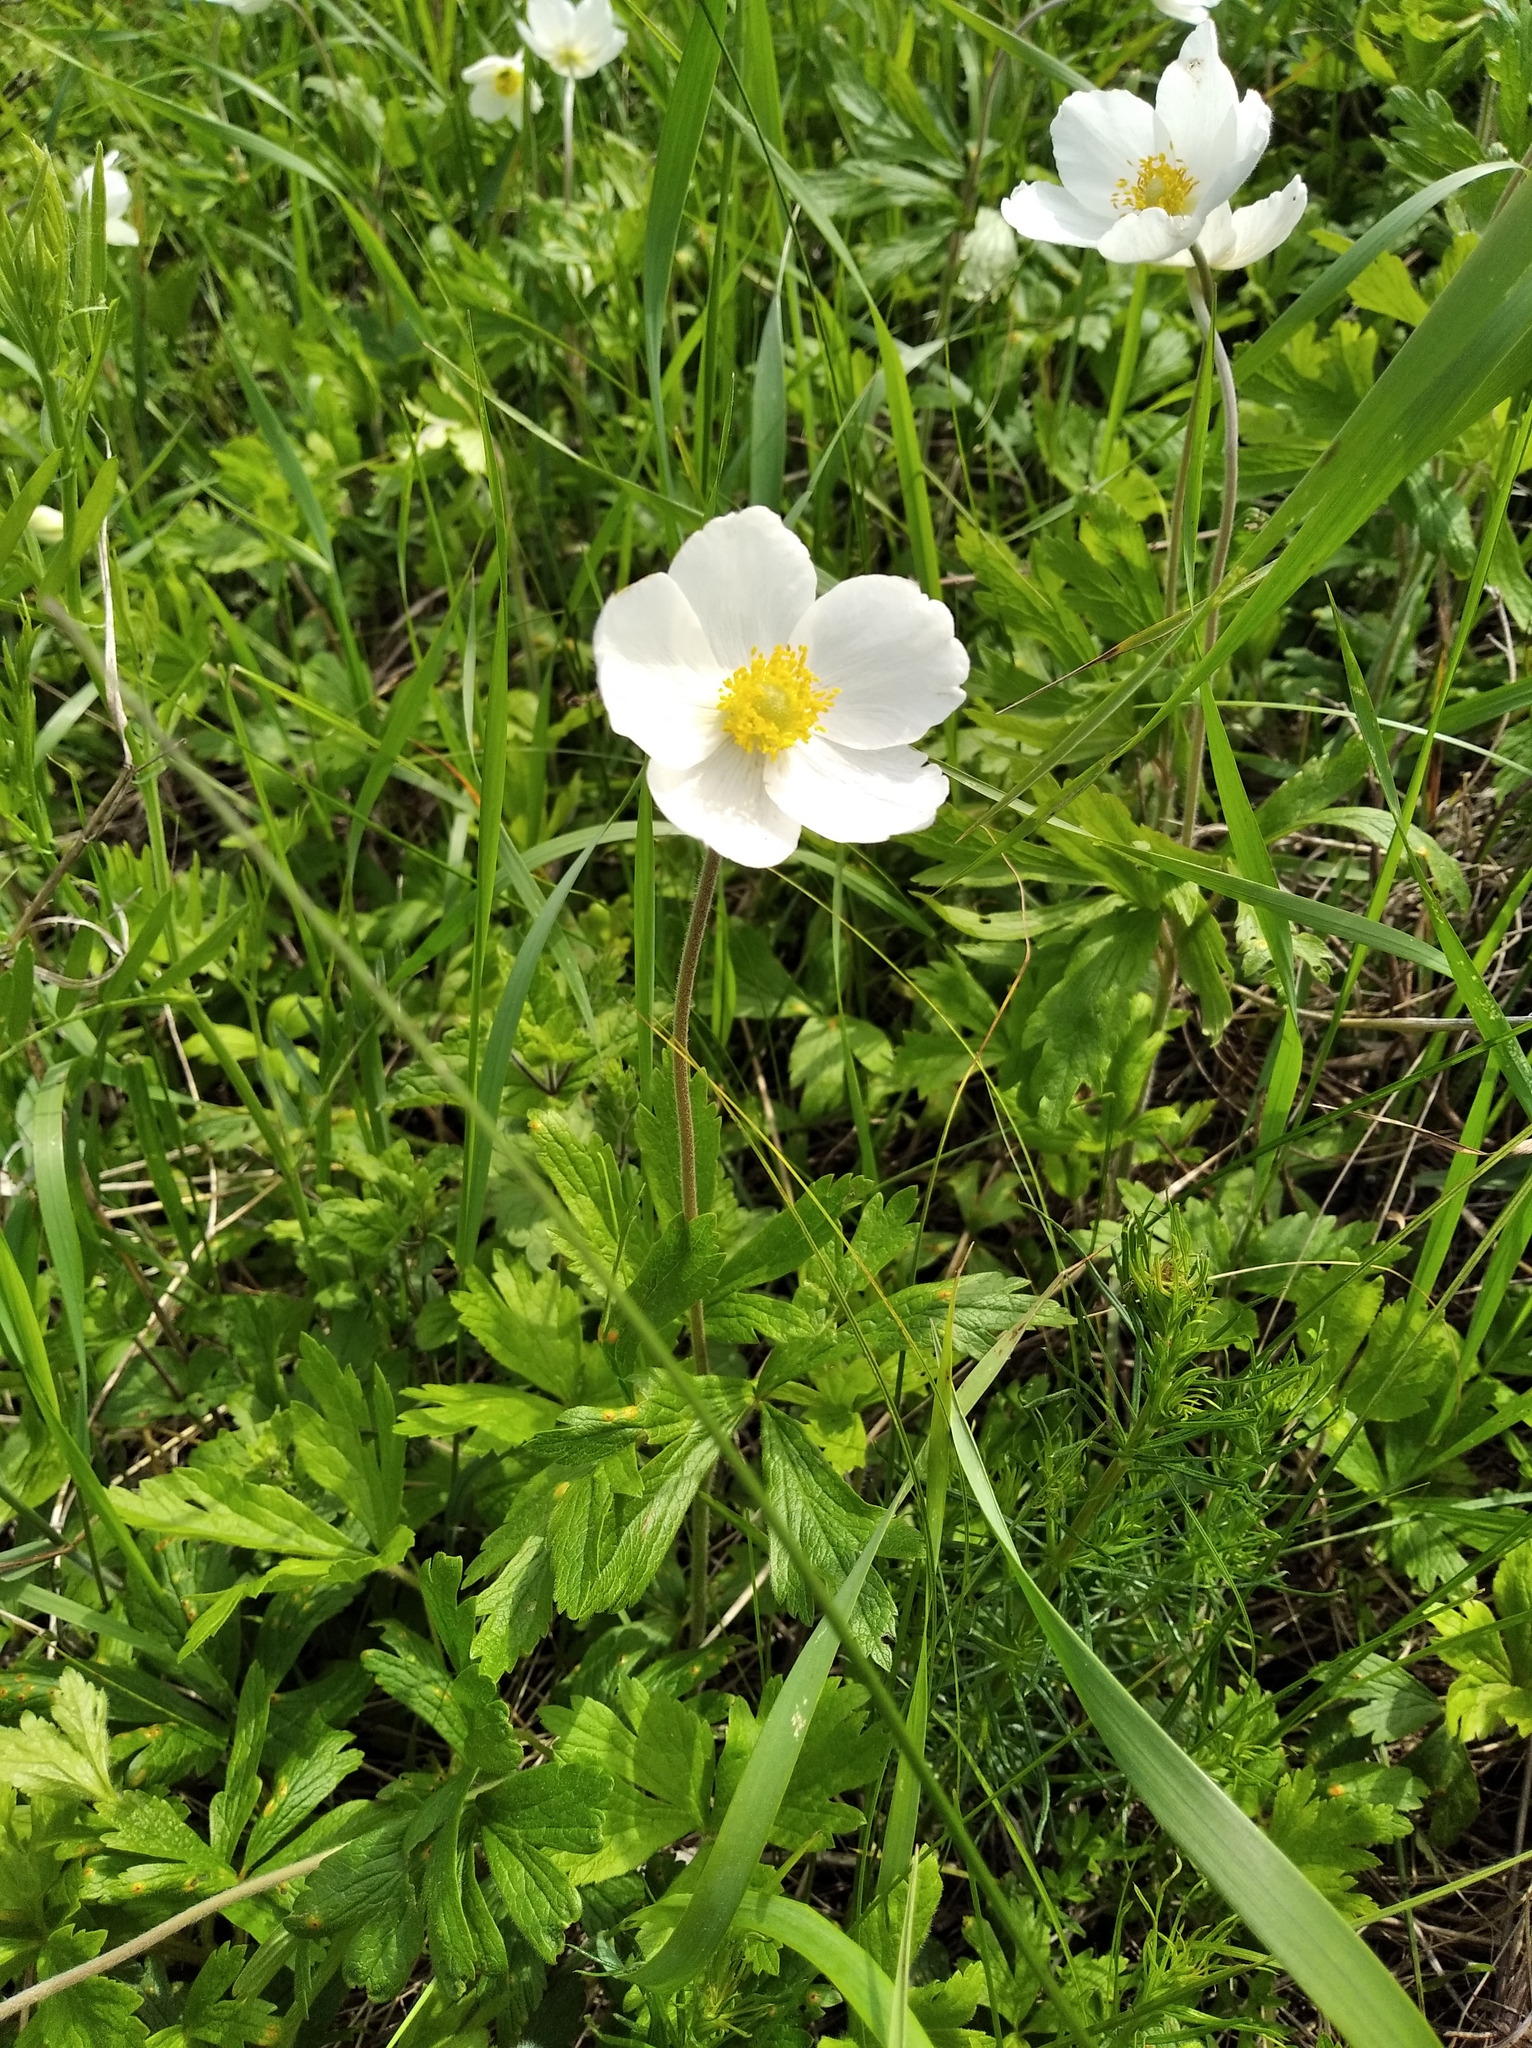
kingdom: Plantae
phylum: Tracheophyta
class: Magnoliopsida
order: Ranunculales
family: Ranunculaceae
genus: Anemone
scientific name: Anemone sylvestris
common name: Snowdrop anemone
